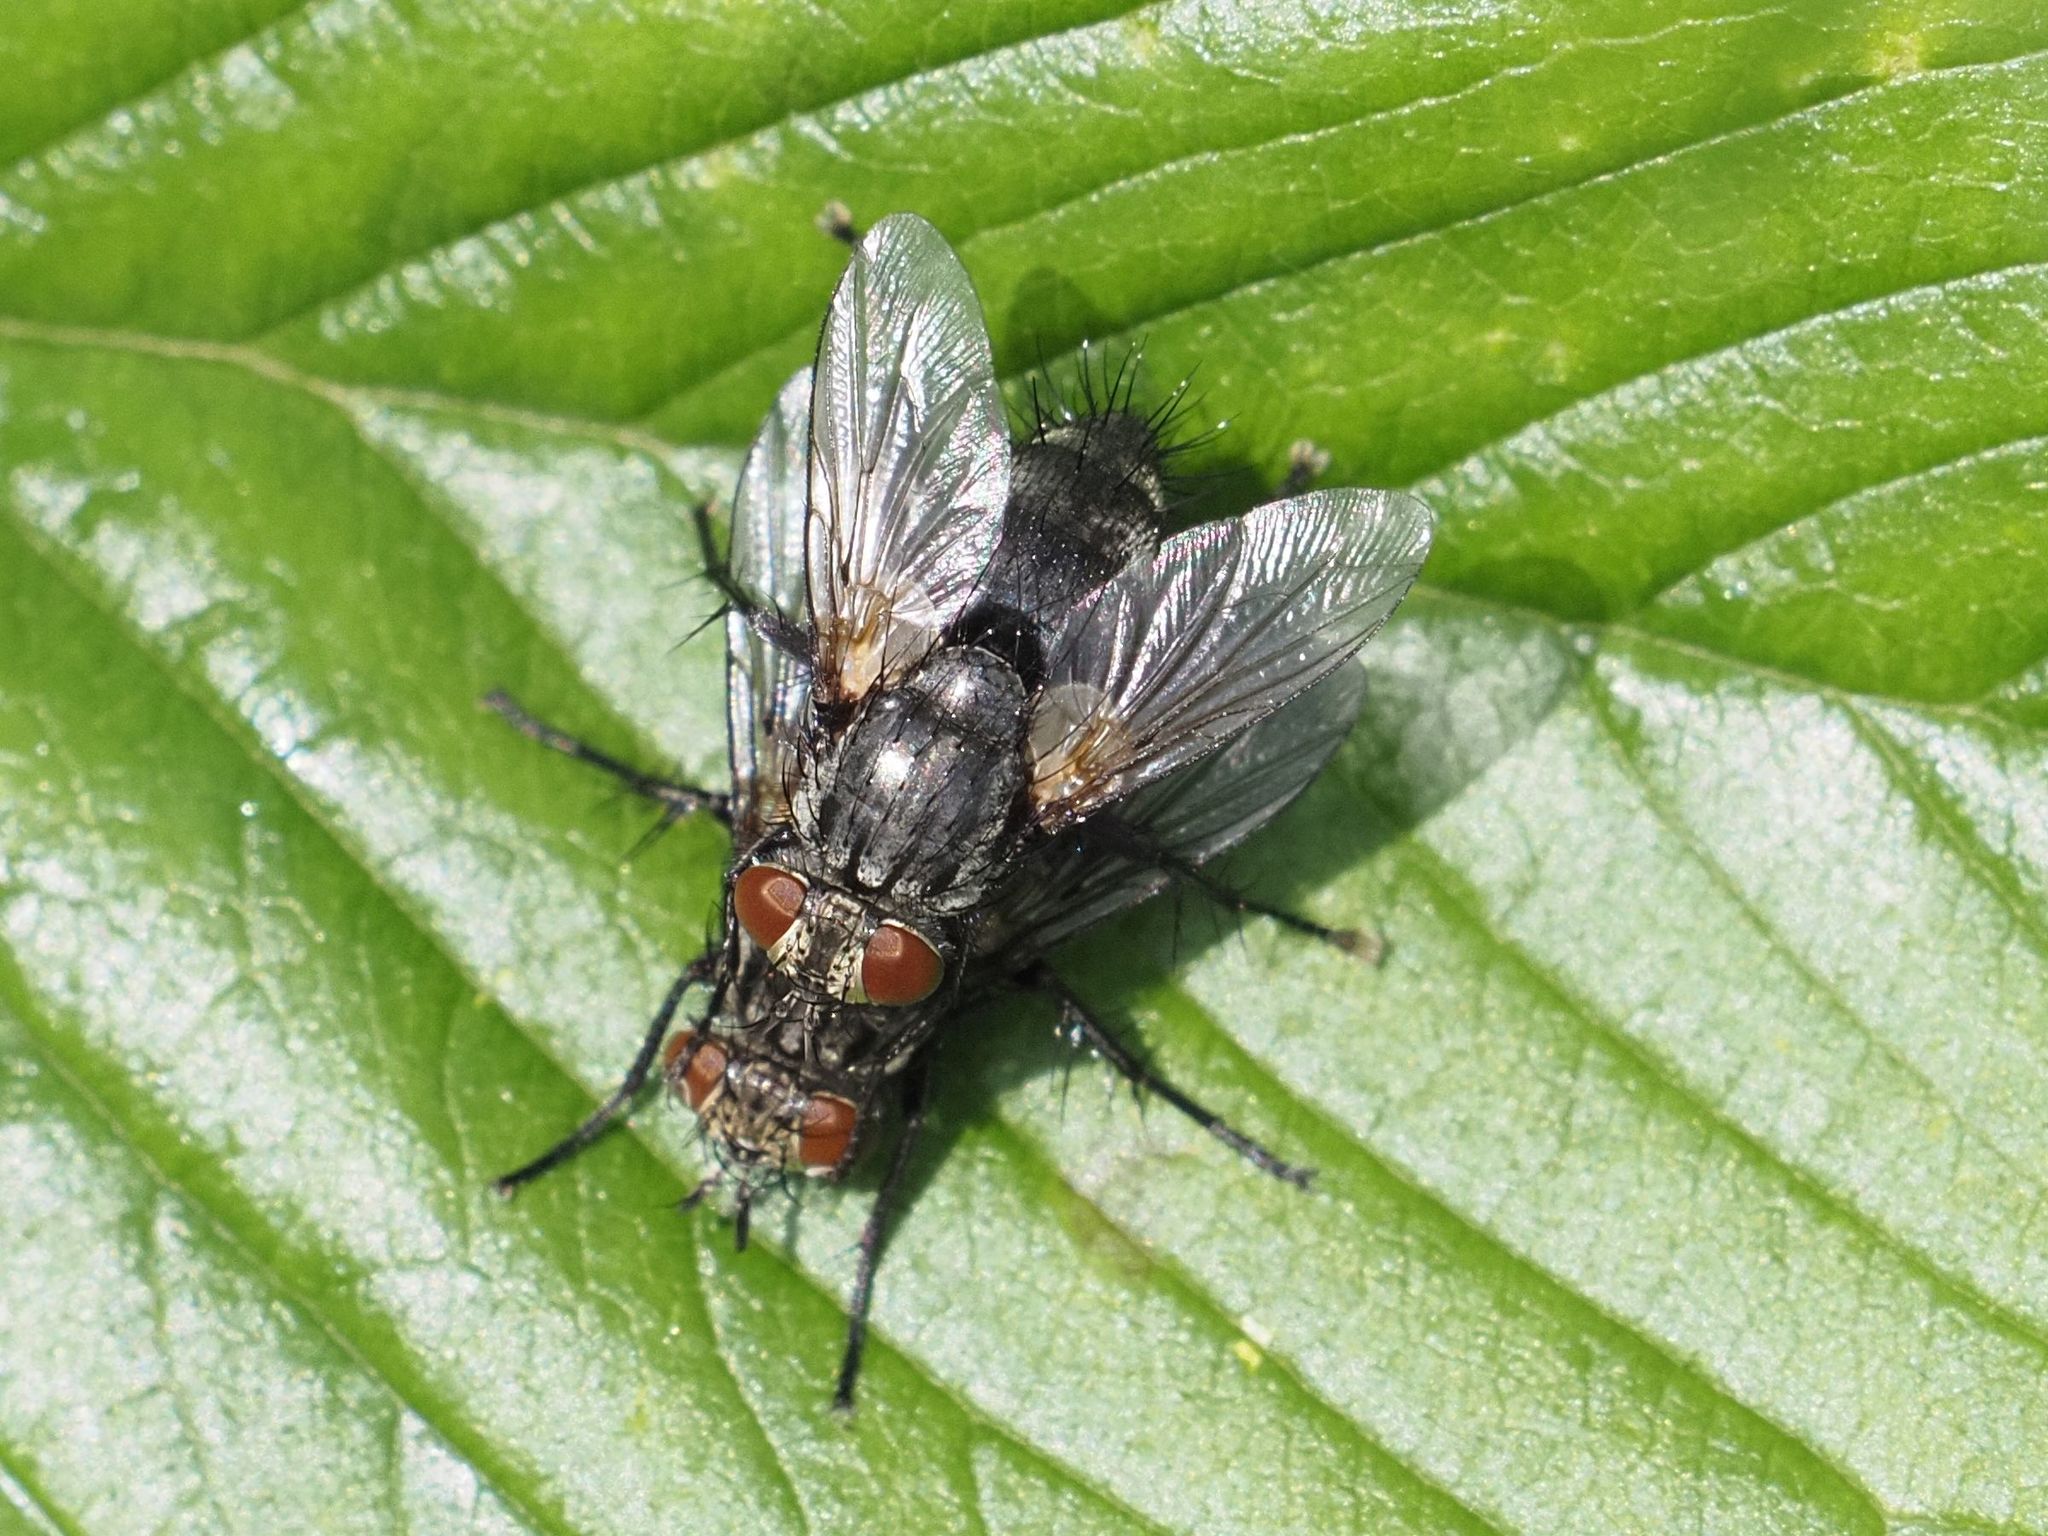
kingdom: Animalia
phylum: Arthropoda
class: Insecta
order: Diptera
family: Tachinidae
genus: Voria
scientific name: Voria ruralis
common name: Parasitic fly
